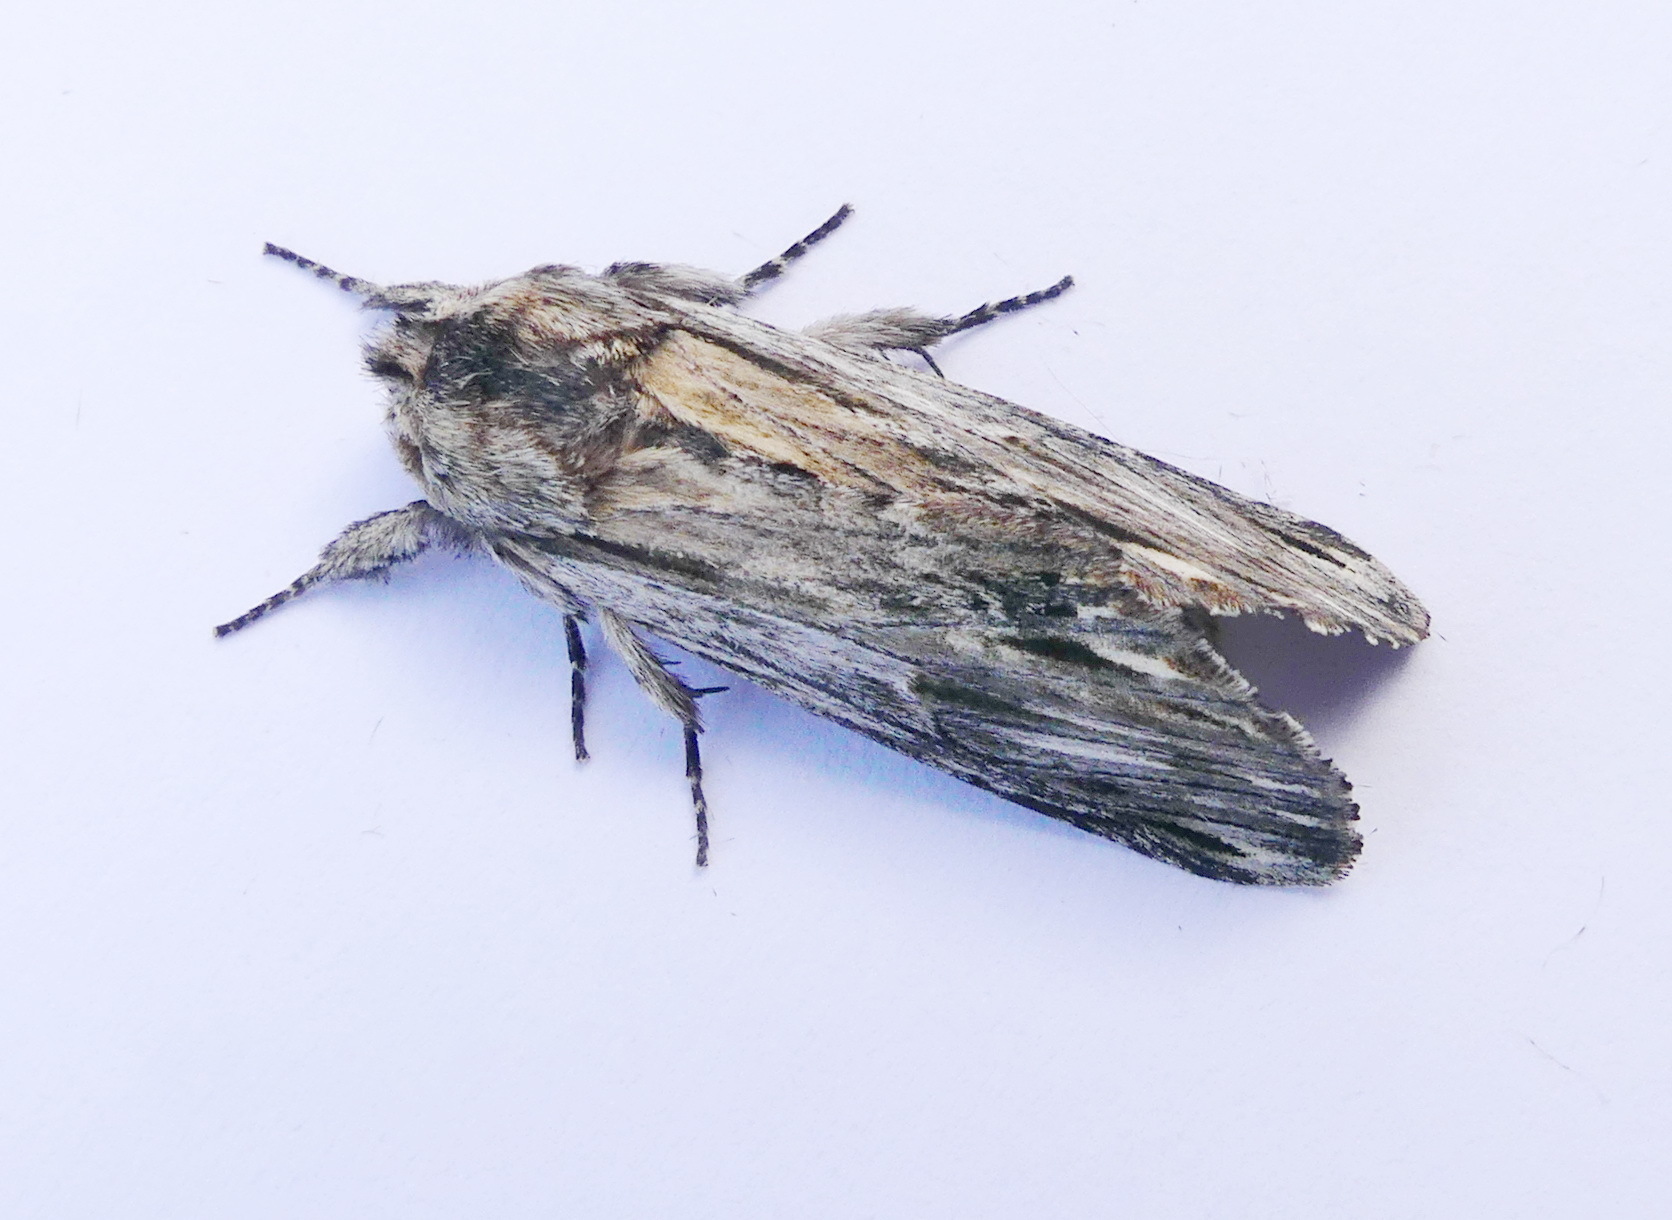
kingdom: Animalia
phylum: Arthropoda
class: Insecta
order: Lepidoptera
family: Notodontidae
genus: Oligocentria
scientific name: Oligocentria Ianassa lignicolor
